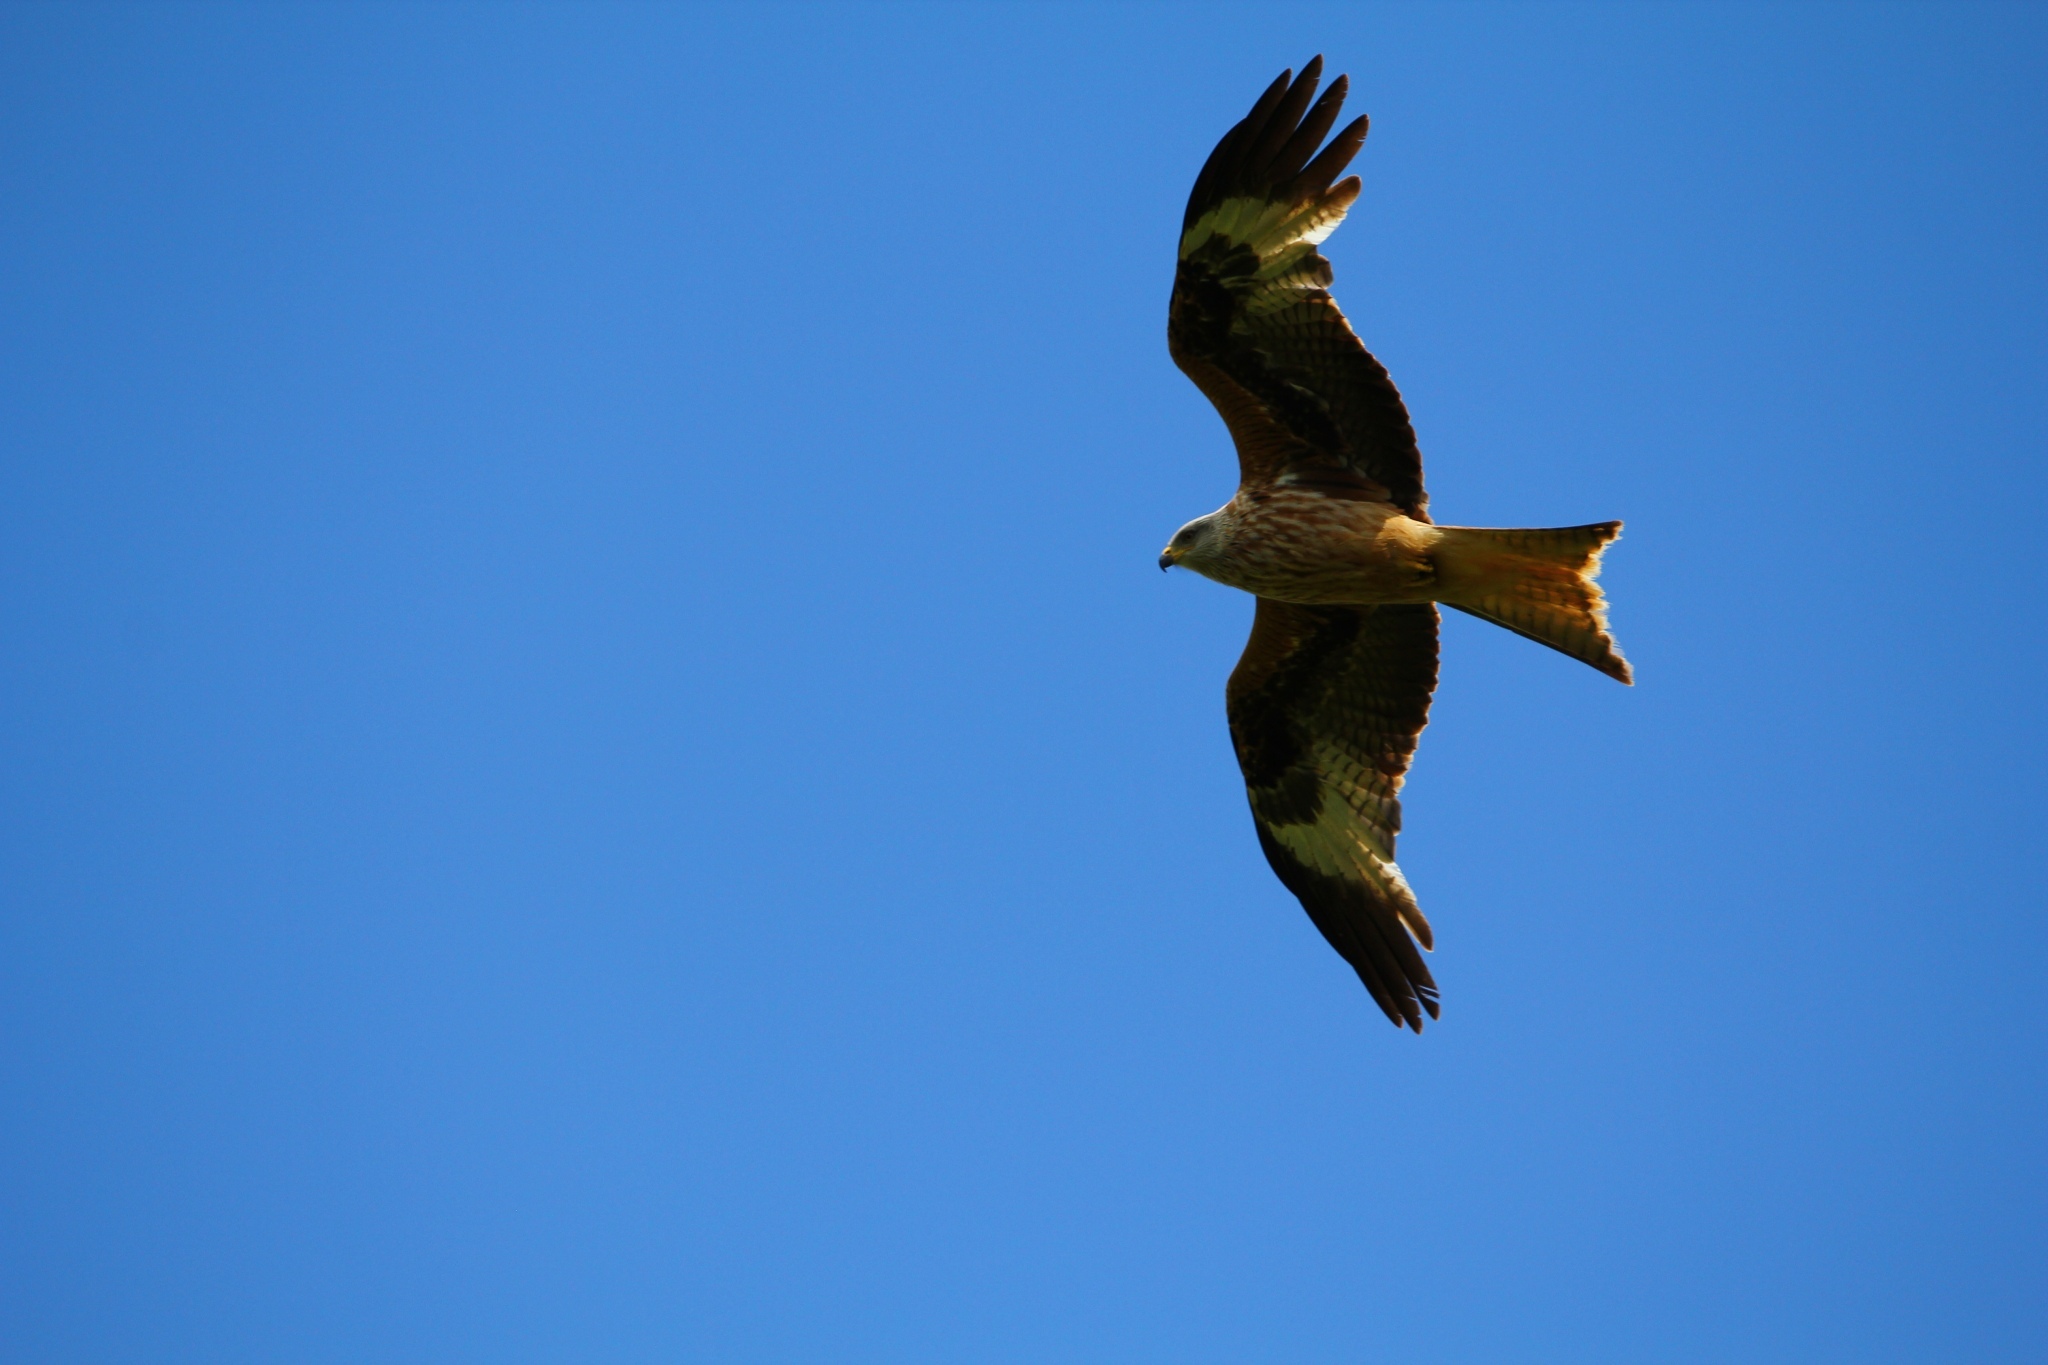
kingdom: Animalia
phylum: Chordata
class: Aves
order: Accipitriformes
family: Accipitridae
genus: Milvus
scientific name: Milvus milvus
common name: Red kite
